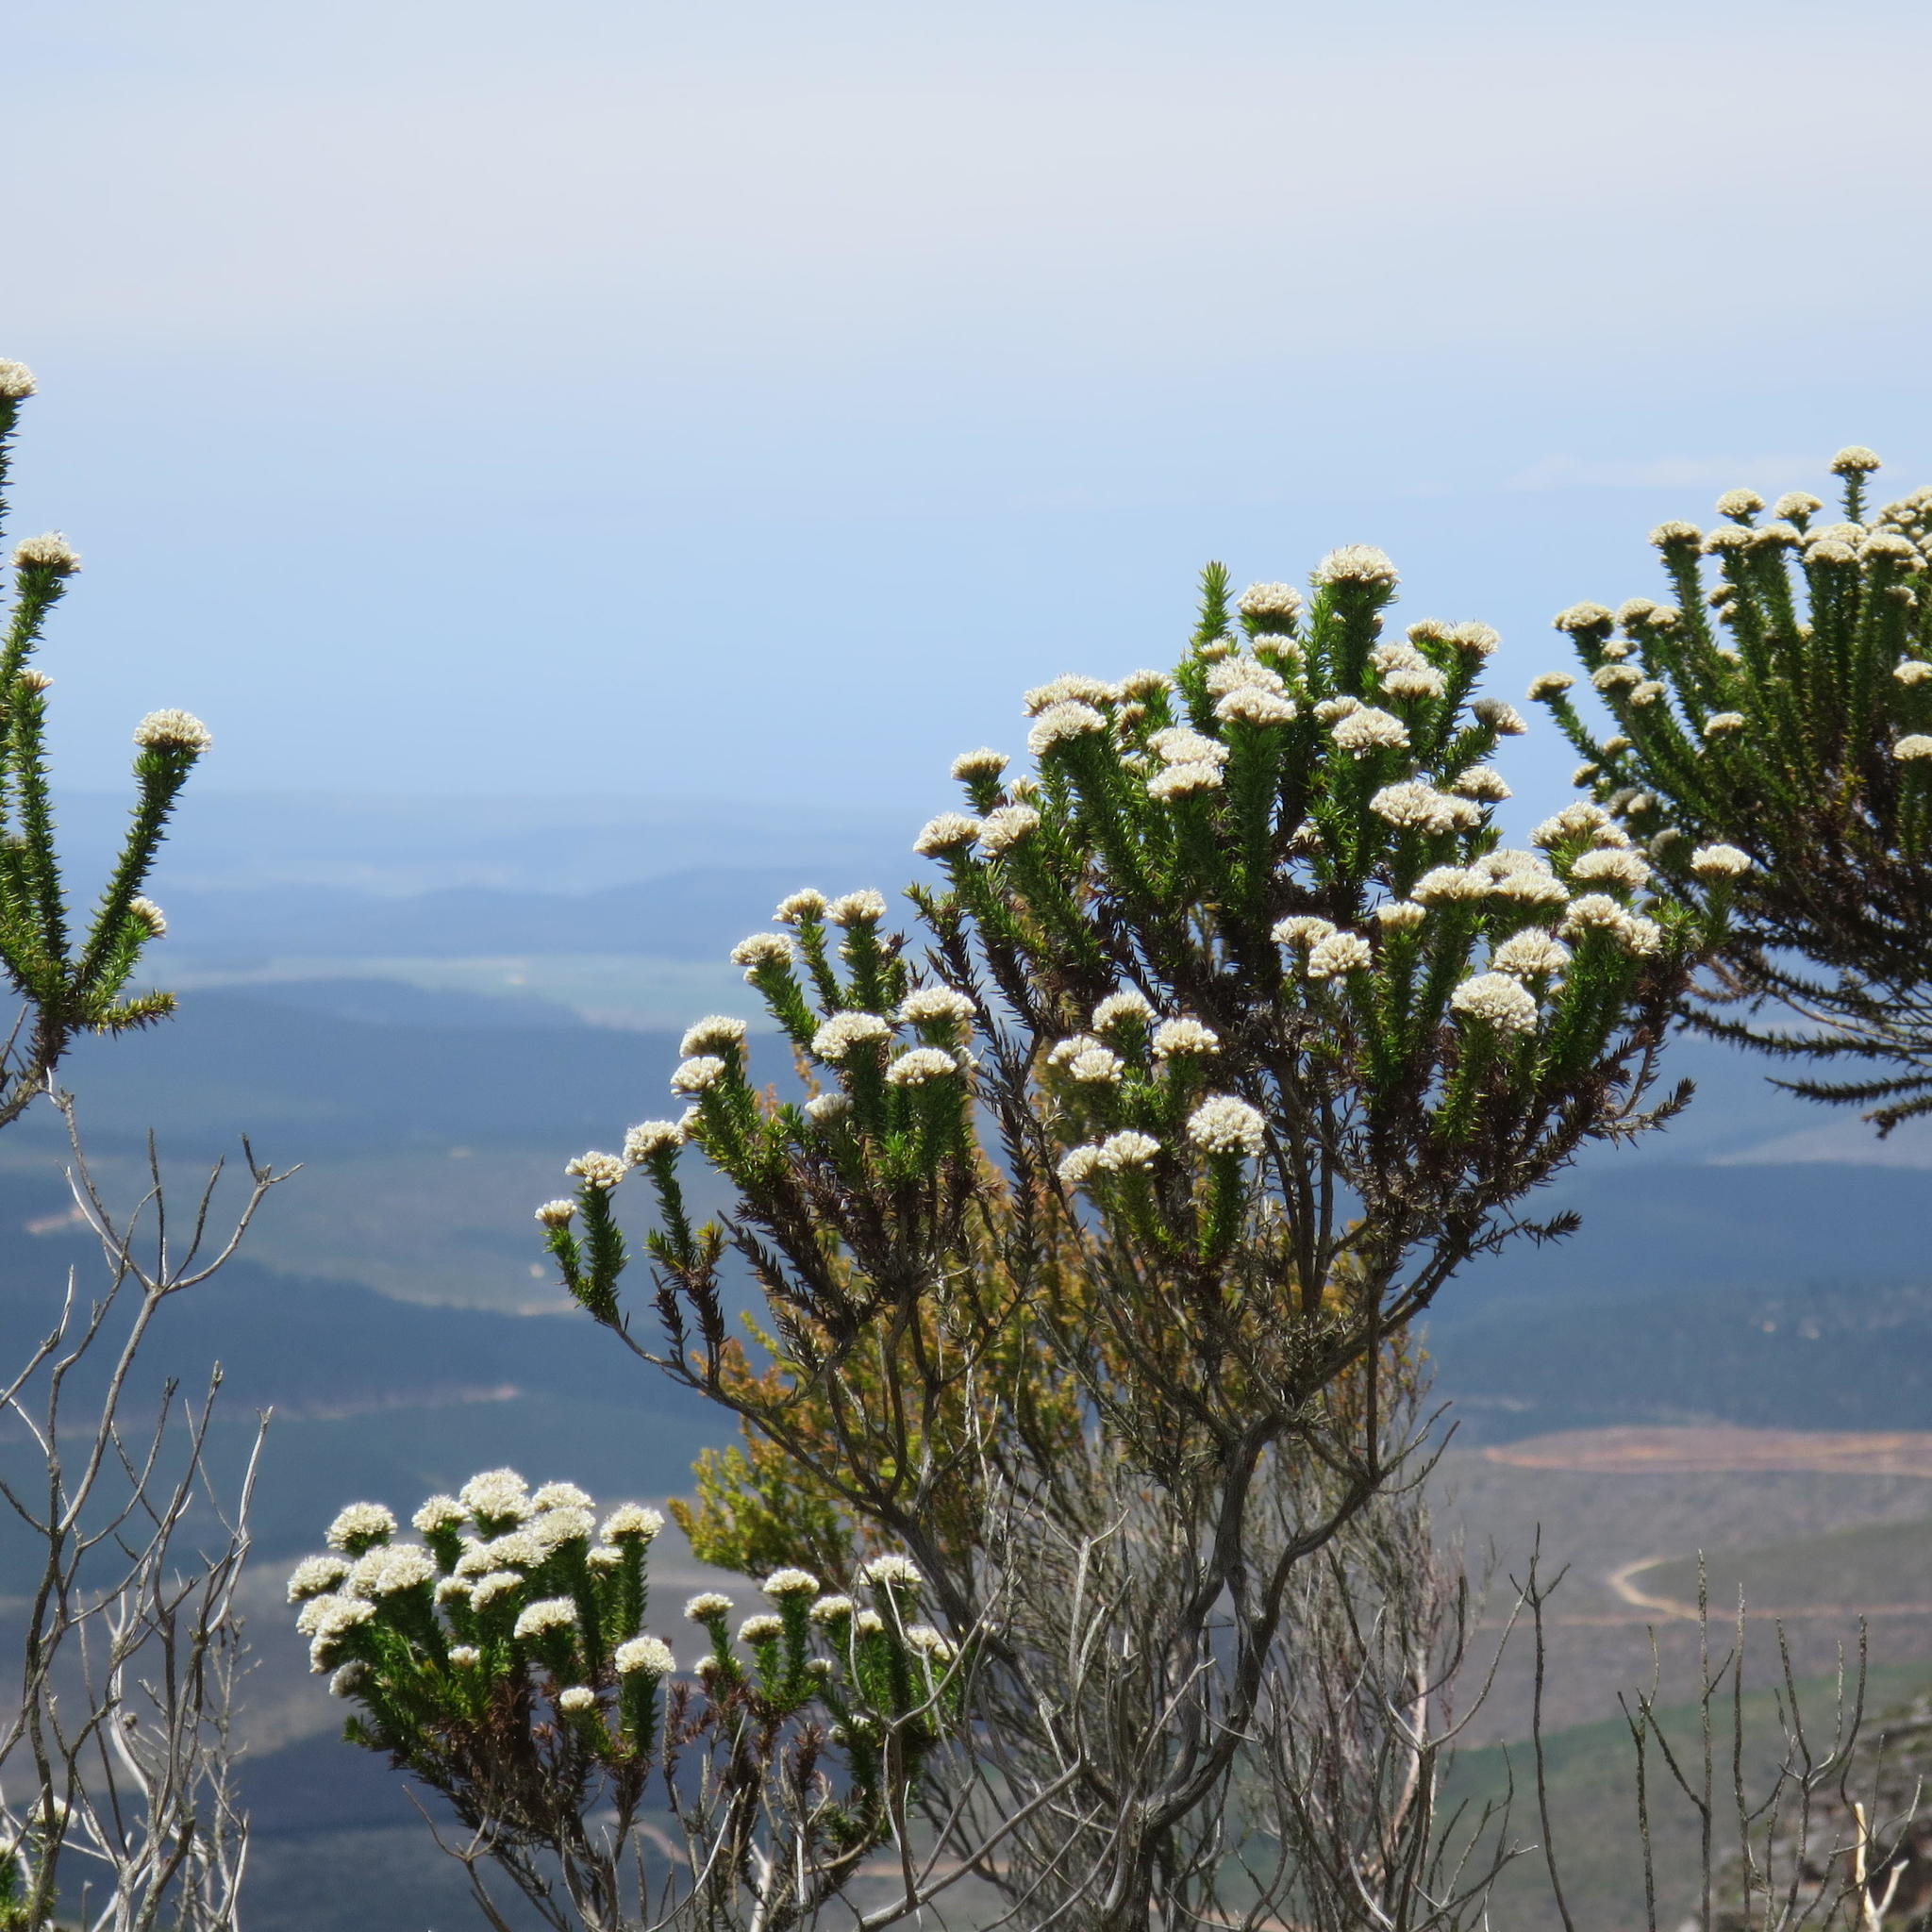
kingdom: Plantae
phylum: Tracheophyta
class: Magnoliopsida
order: Asterales
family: Asteraceae
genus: Metalasia
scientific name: Metalasia trivialis
